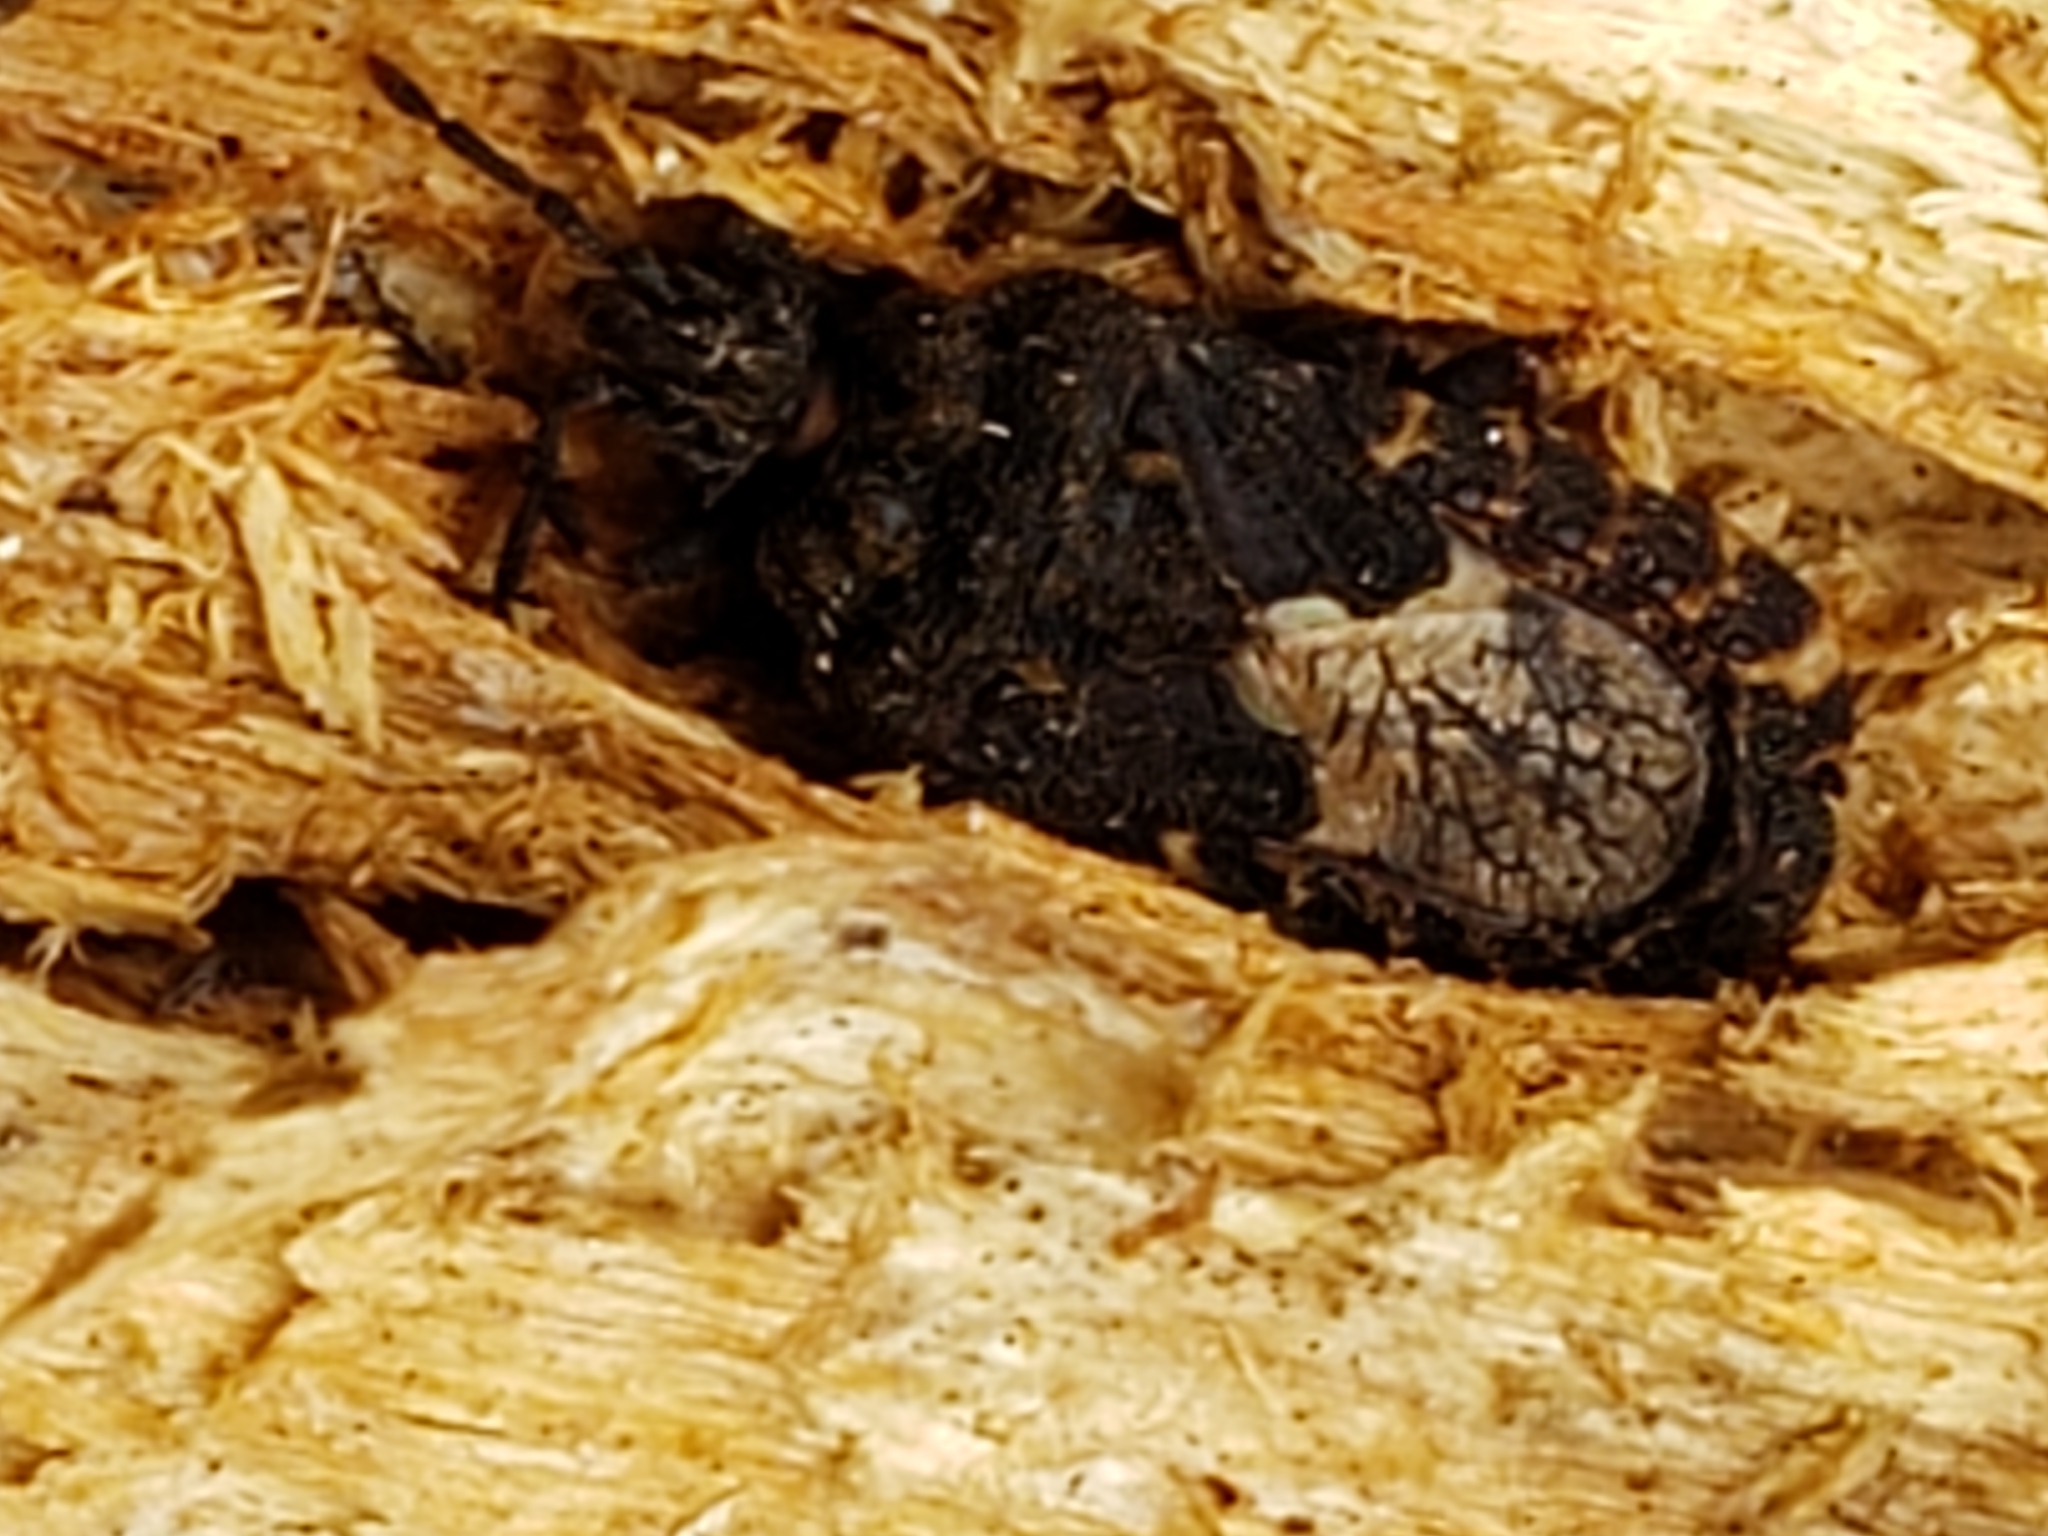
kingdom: Animalia
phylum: Arthropoda
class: Insecta
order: Hemiptera
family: Aradidae
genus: Mezira
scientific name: Mezira
